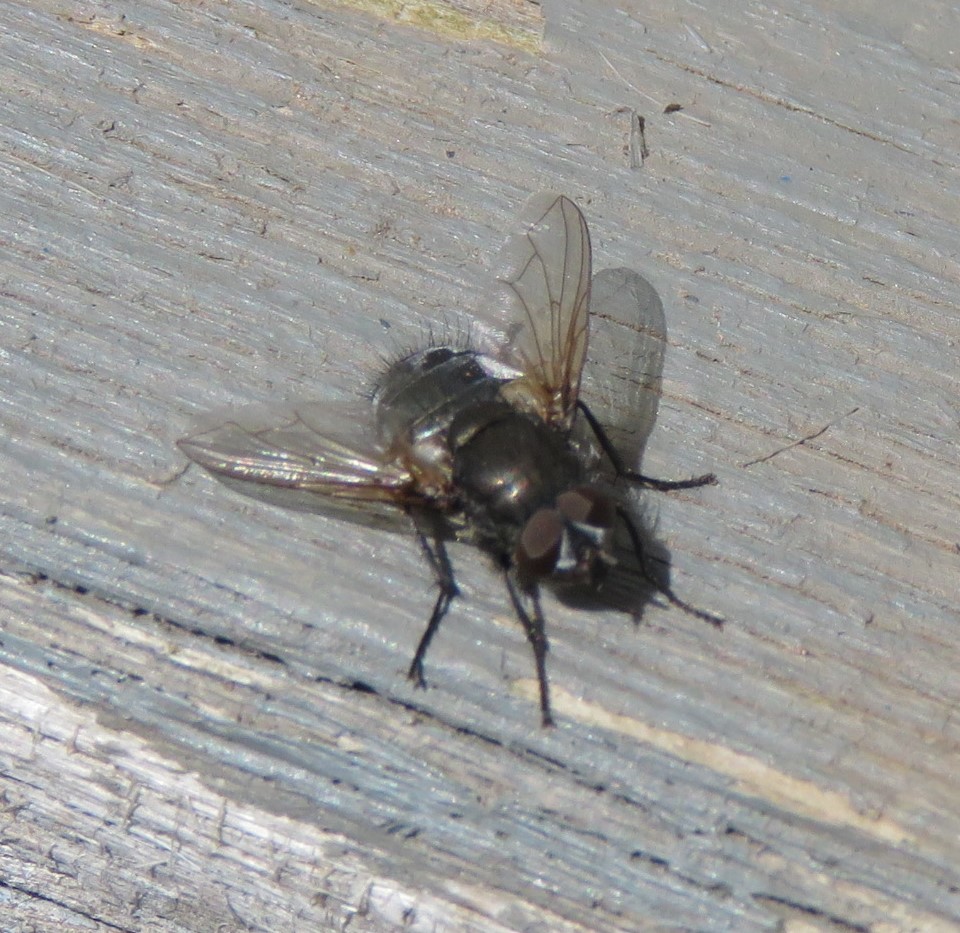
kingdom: Animalia
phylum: Arthropoda
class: Insecta
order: Diptera
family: Polleniidae
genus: Pollenia
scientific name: Pollenia
